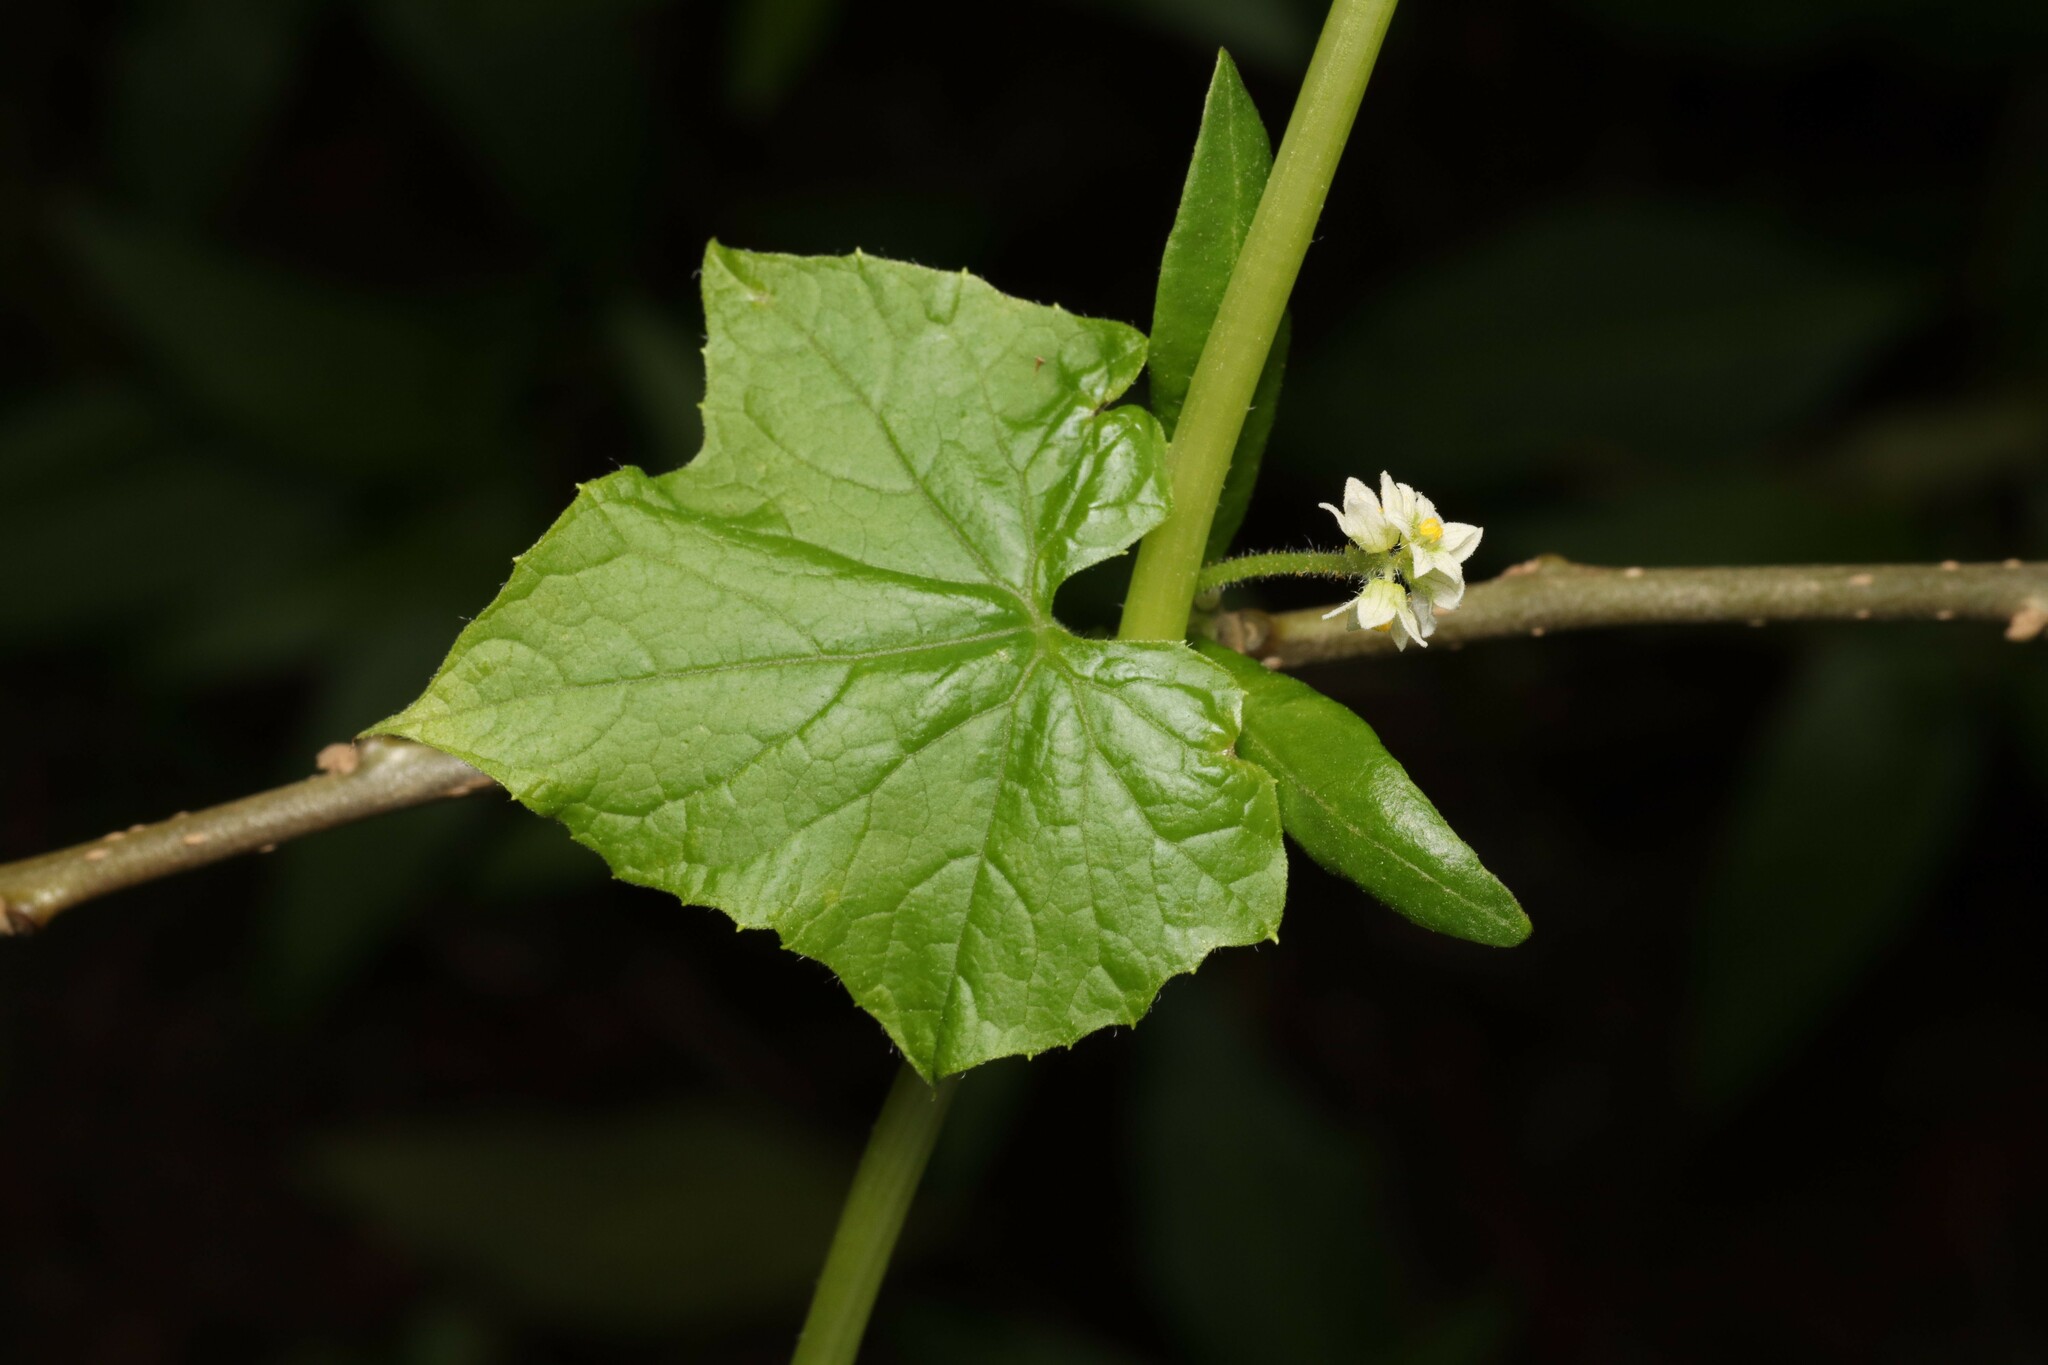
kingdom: Plantae
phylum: Tracheophyta
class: Magnoliopsida
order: Cucurbitales
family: Cucurbitaceae
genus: Sicyos
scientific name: Sicyos baderoa
